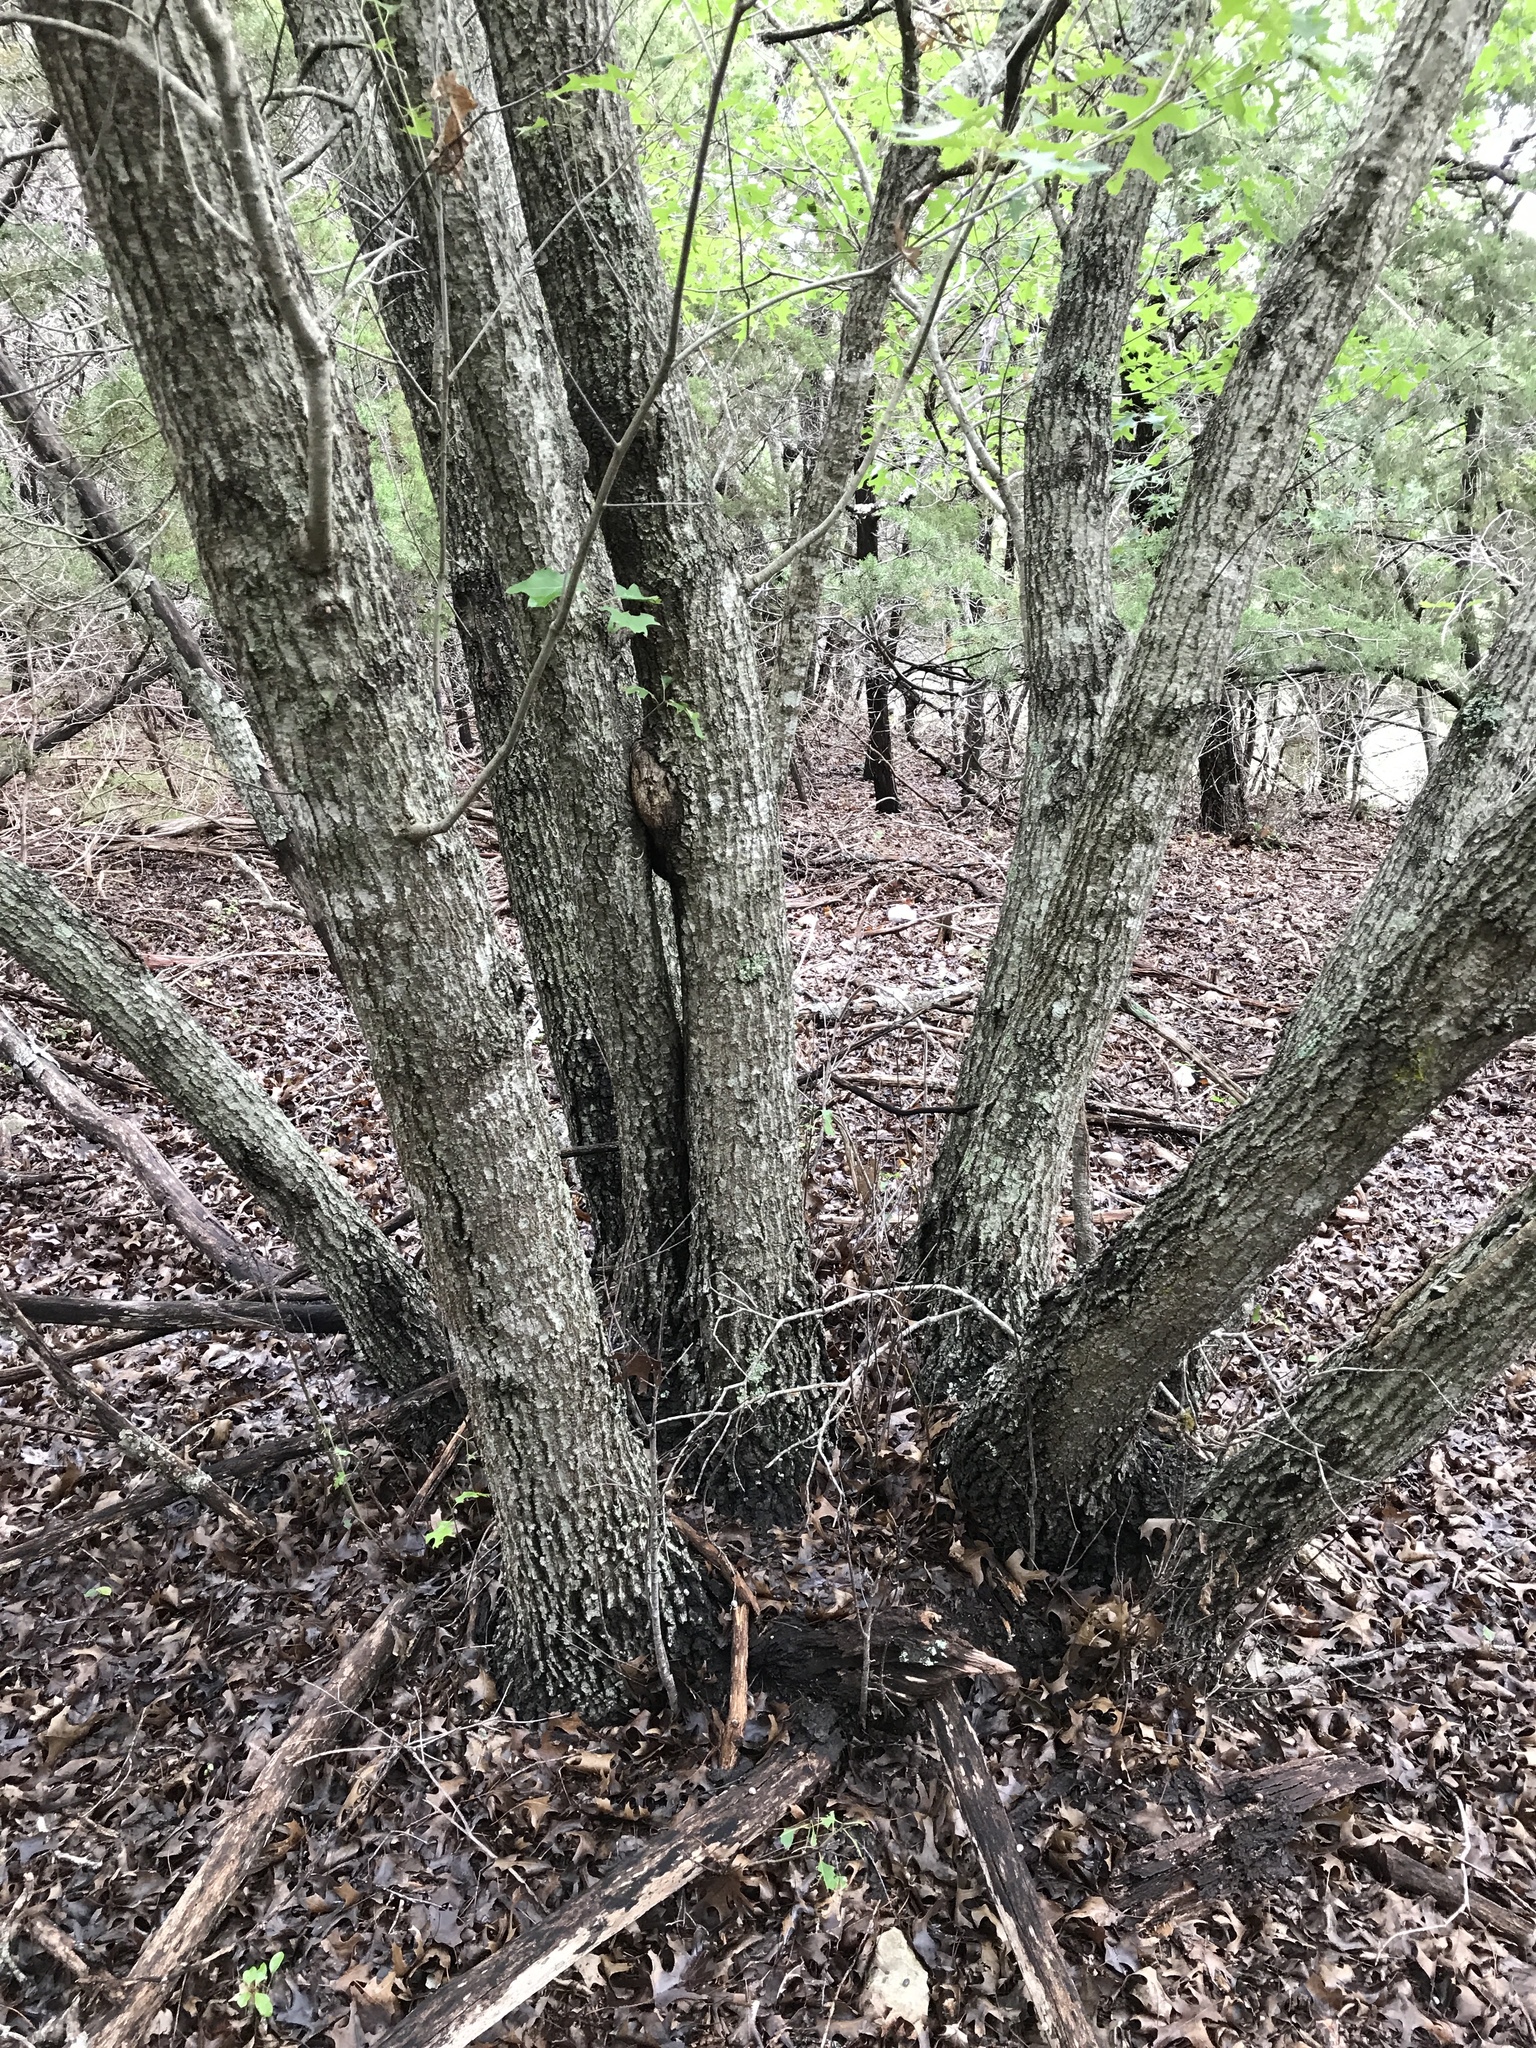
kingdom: Plantae
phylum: Tracheophyta
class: Magnoliopsida
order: Fagales
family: Fagaceae
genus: Quercus
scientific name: Quercus buckleyi
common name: Buckley oak
